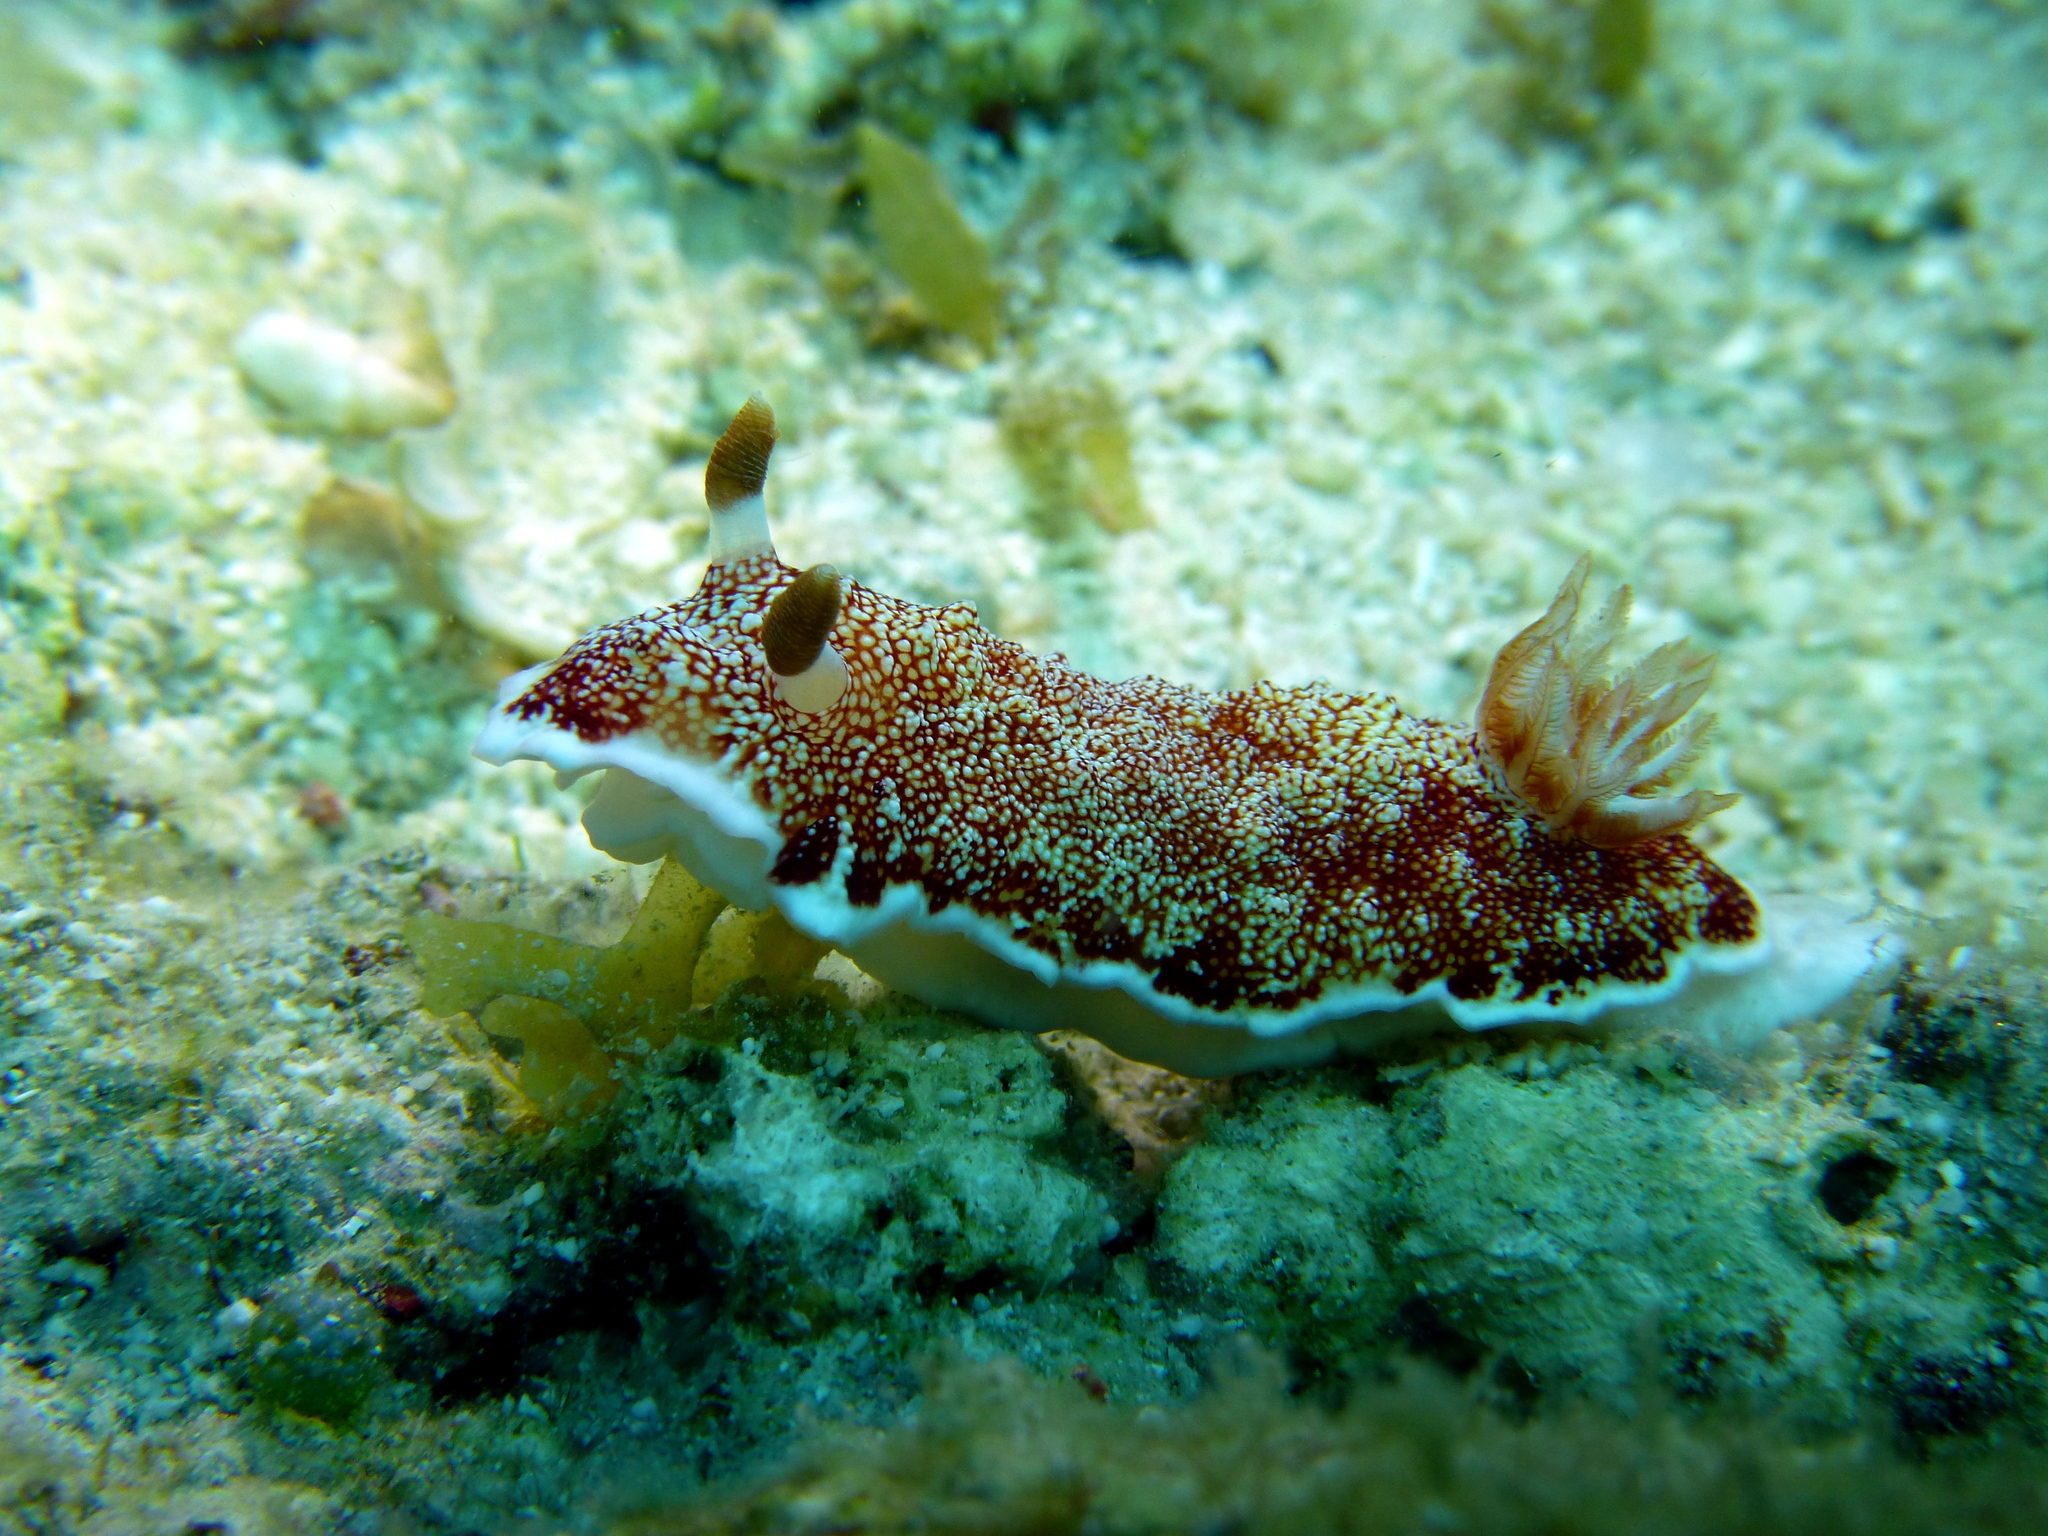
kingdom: Animalia
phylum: Mollusca
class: Gastropoda
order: Nudibranchia
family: Chromodorididae
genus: Goniobranchus
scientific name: Goniobranchus reticulatus
